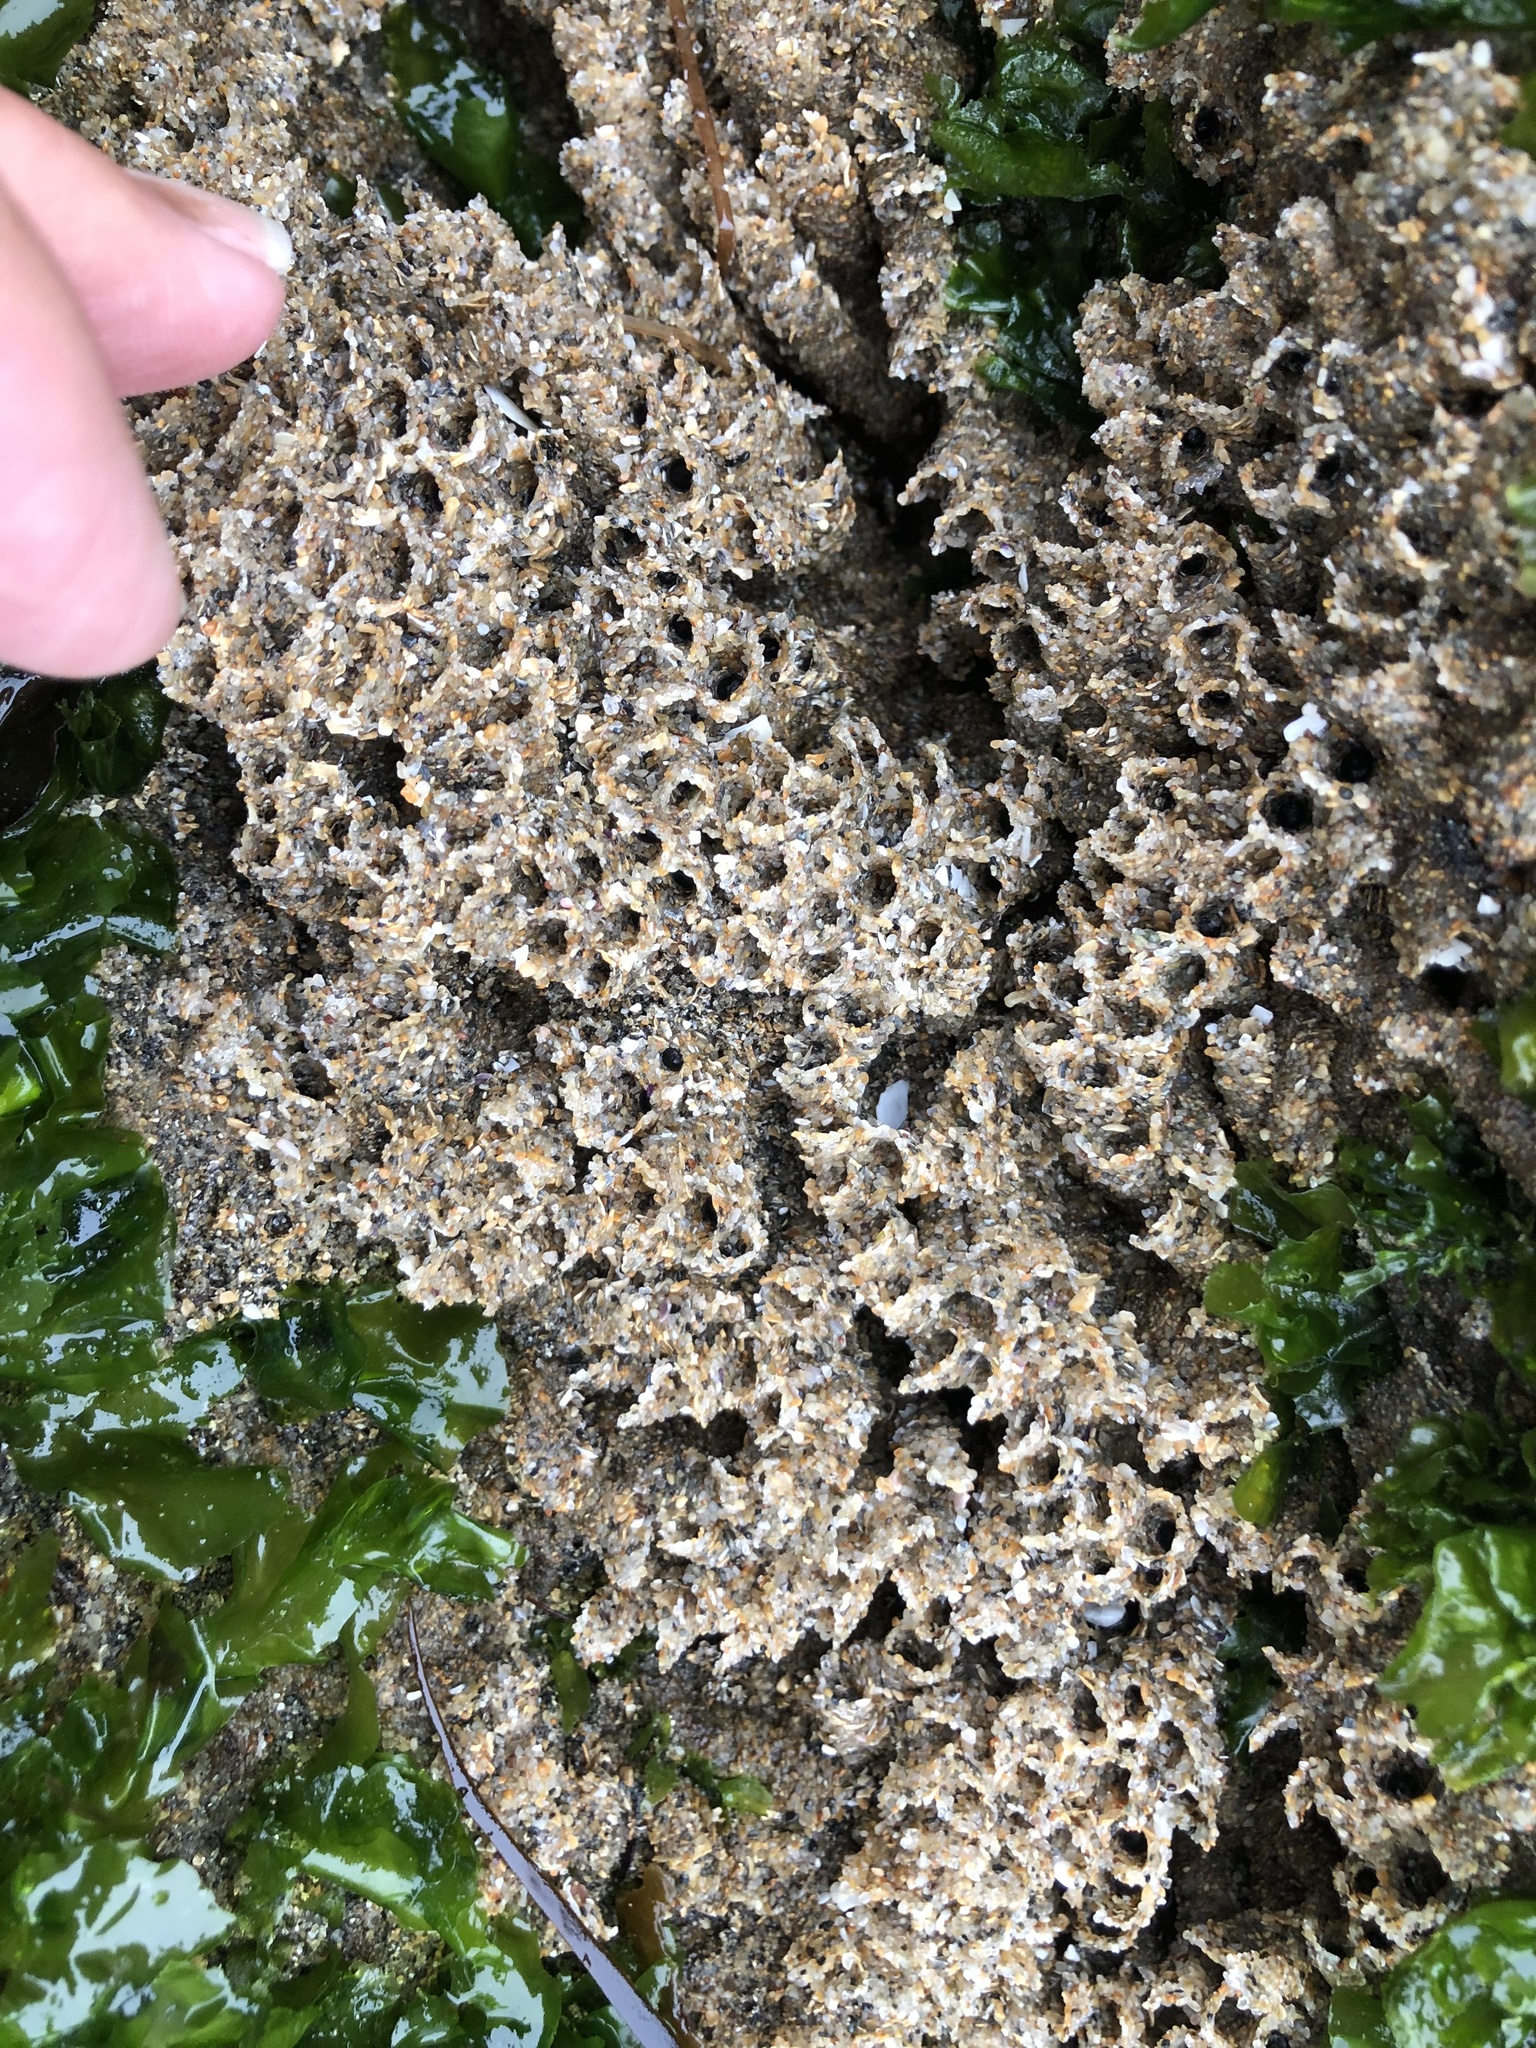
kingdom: Animalia
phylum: Annelida
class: Polychaeta
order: Sabellida
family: Sabellariidae
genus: Phragmatopoma
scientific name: Phragmatopoma californica
